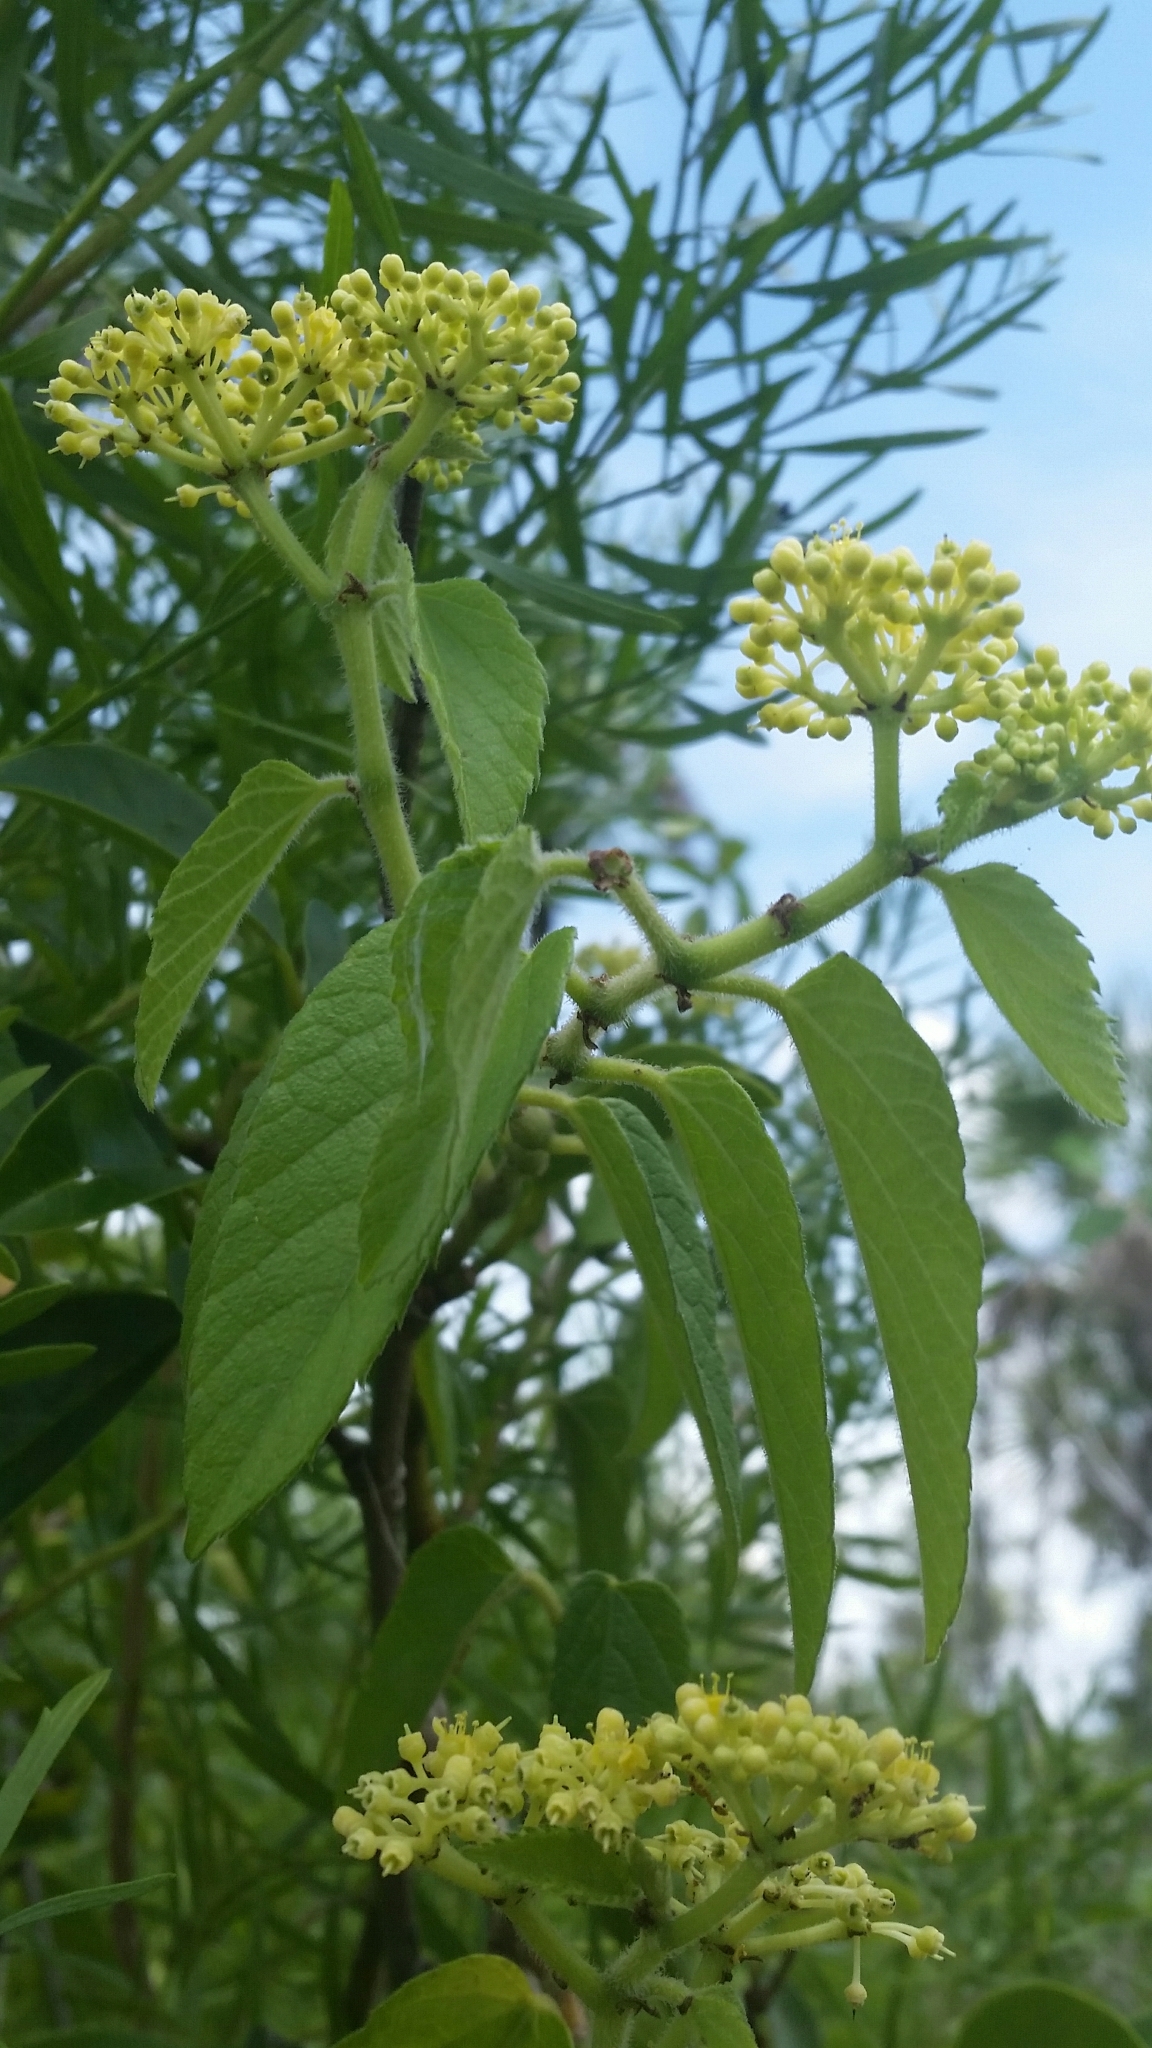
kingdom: Plantae
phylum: Tracheophyta
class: Magnoliopsida
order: Vitales
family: Vitaceae
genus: Cissus
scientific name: Cissus verticillata
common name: Princess vine
